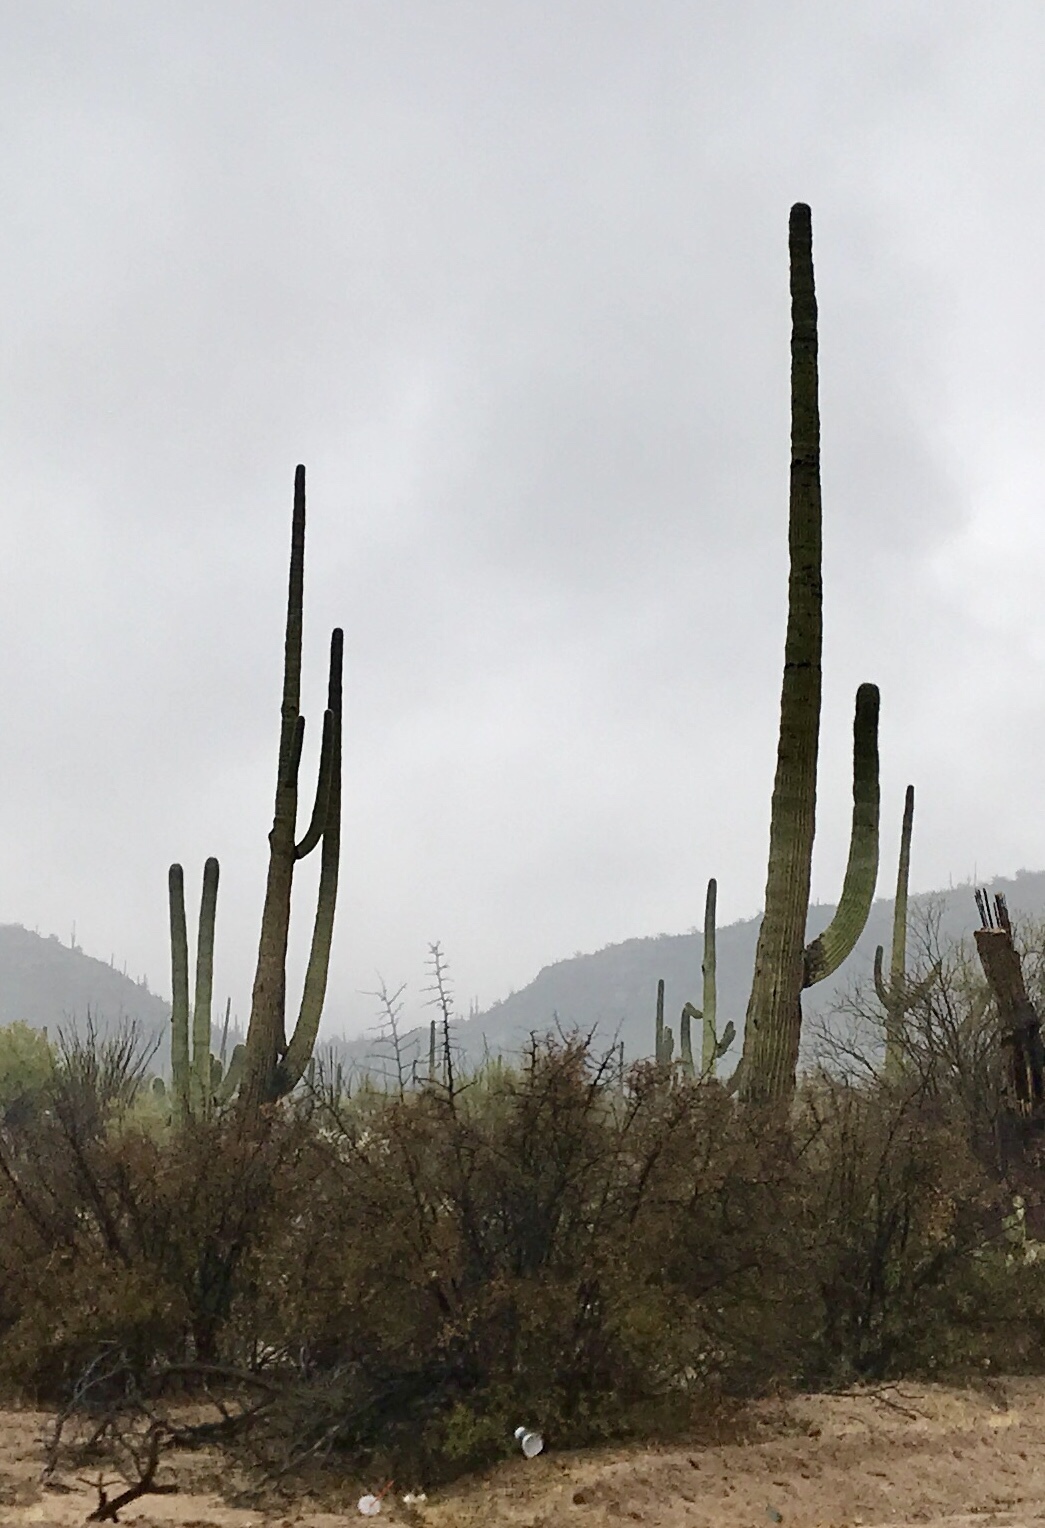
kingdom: Plantae
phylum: Tracheophyta
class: Magnoliopsida
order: Caryophyllales
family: Cactaceae
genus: Carnegiea
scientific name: Carnegiea gigantea
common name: Saguaro
